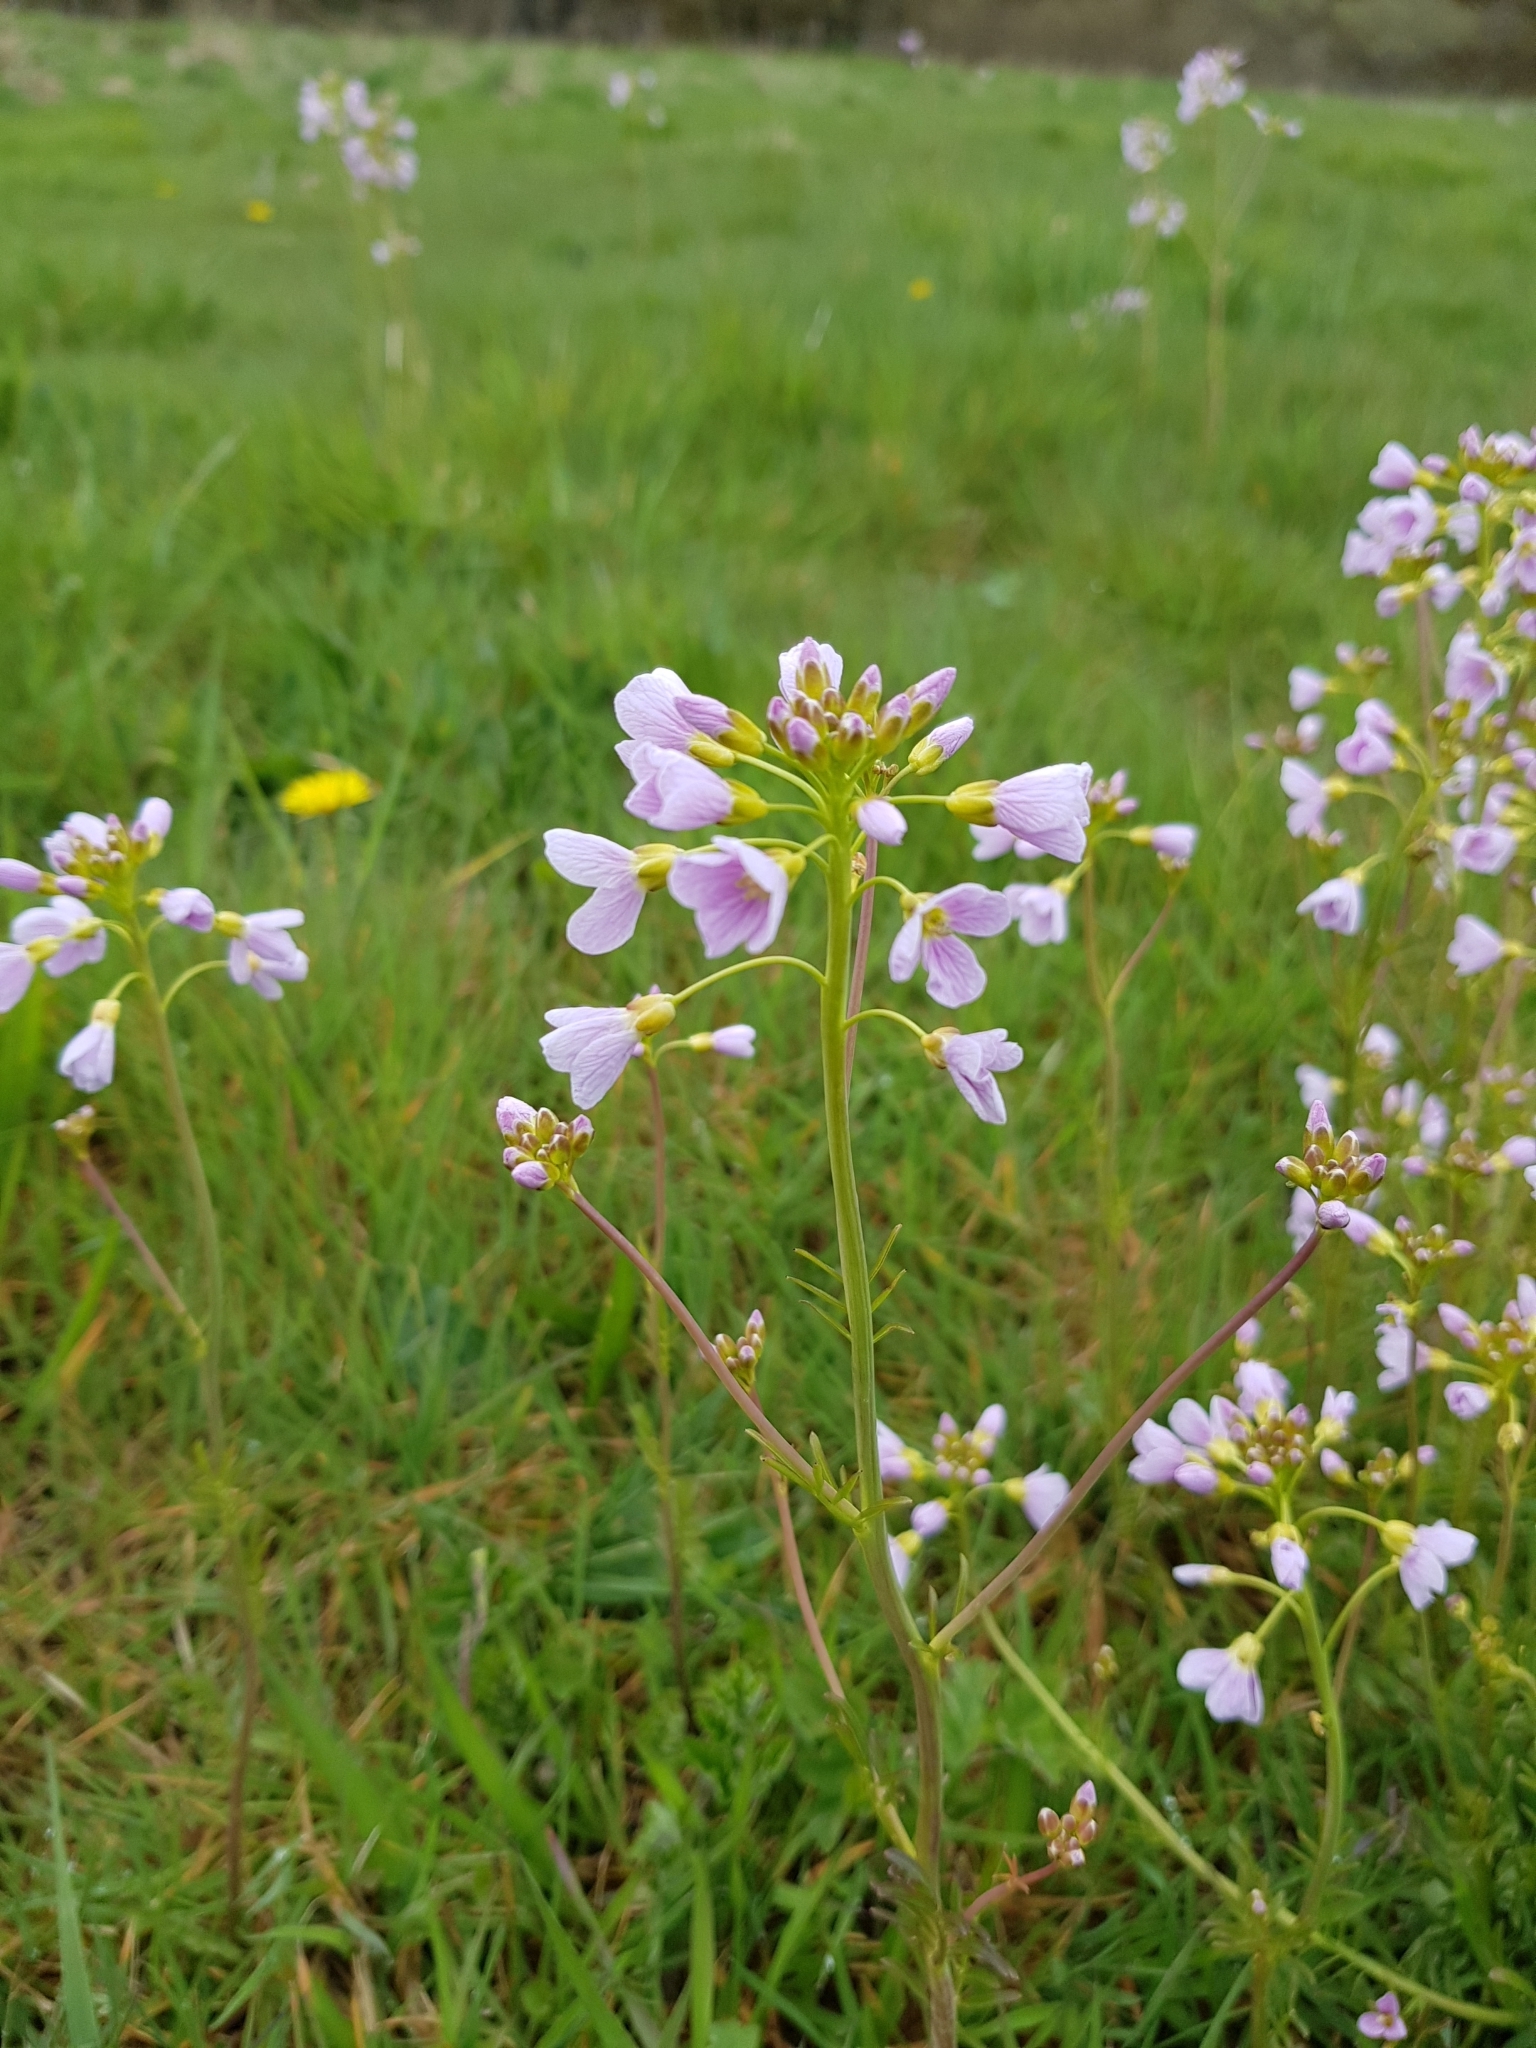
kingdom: Plantae
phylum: Tracheophyta
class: Magnoliopsida
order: Brassicales
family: Brassicaceae
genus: Cardamine
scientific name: Cardamine pratensis
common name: Cuckoo flower
